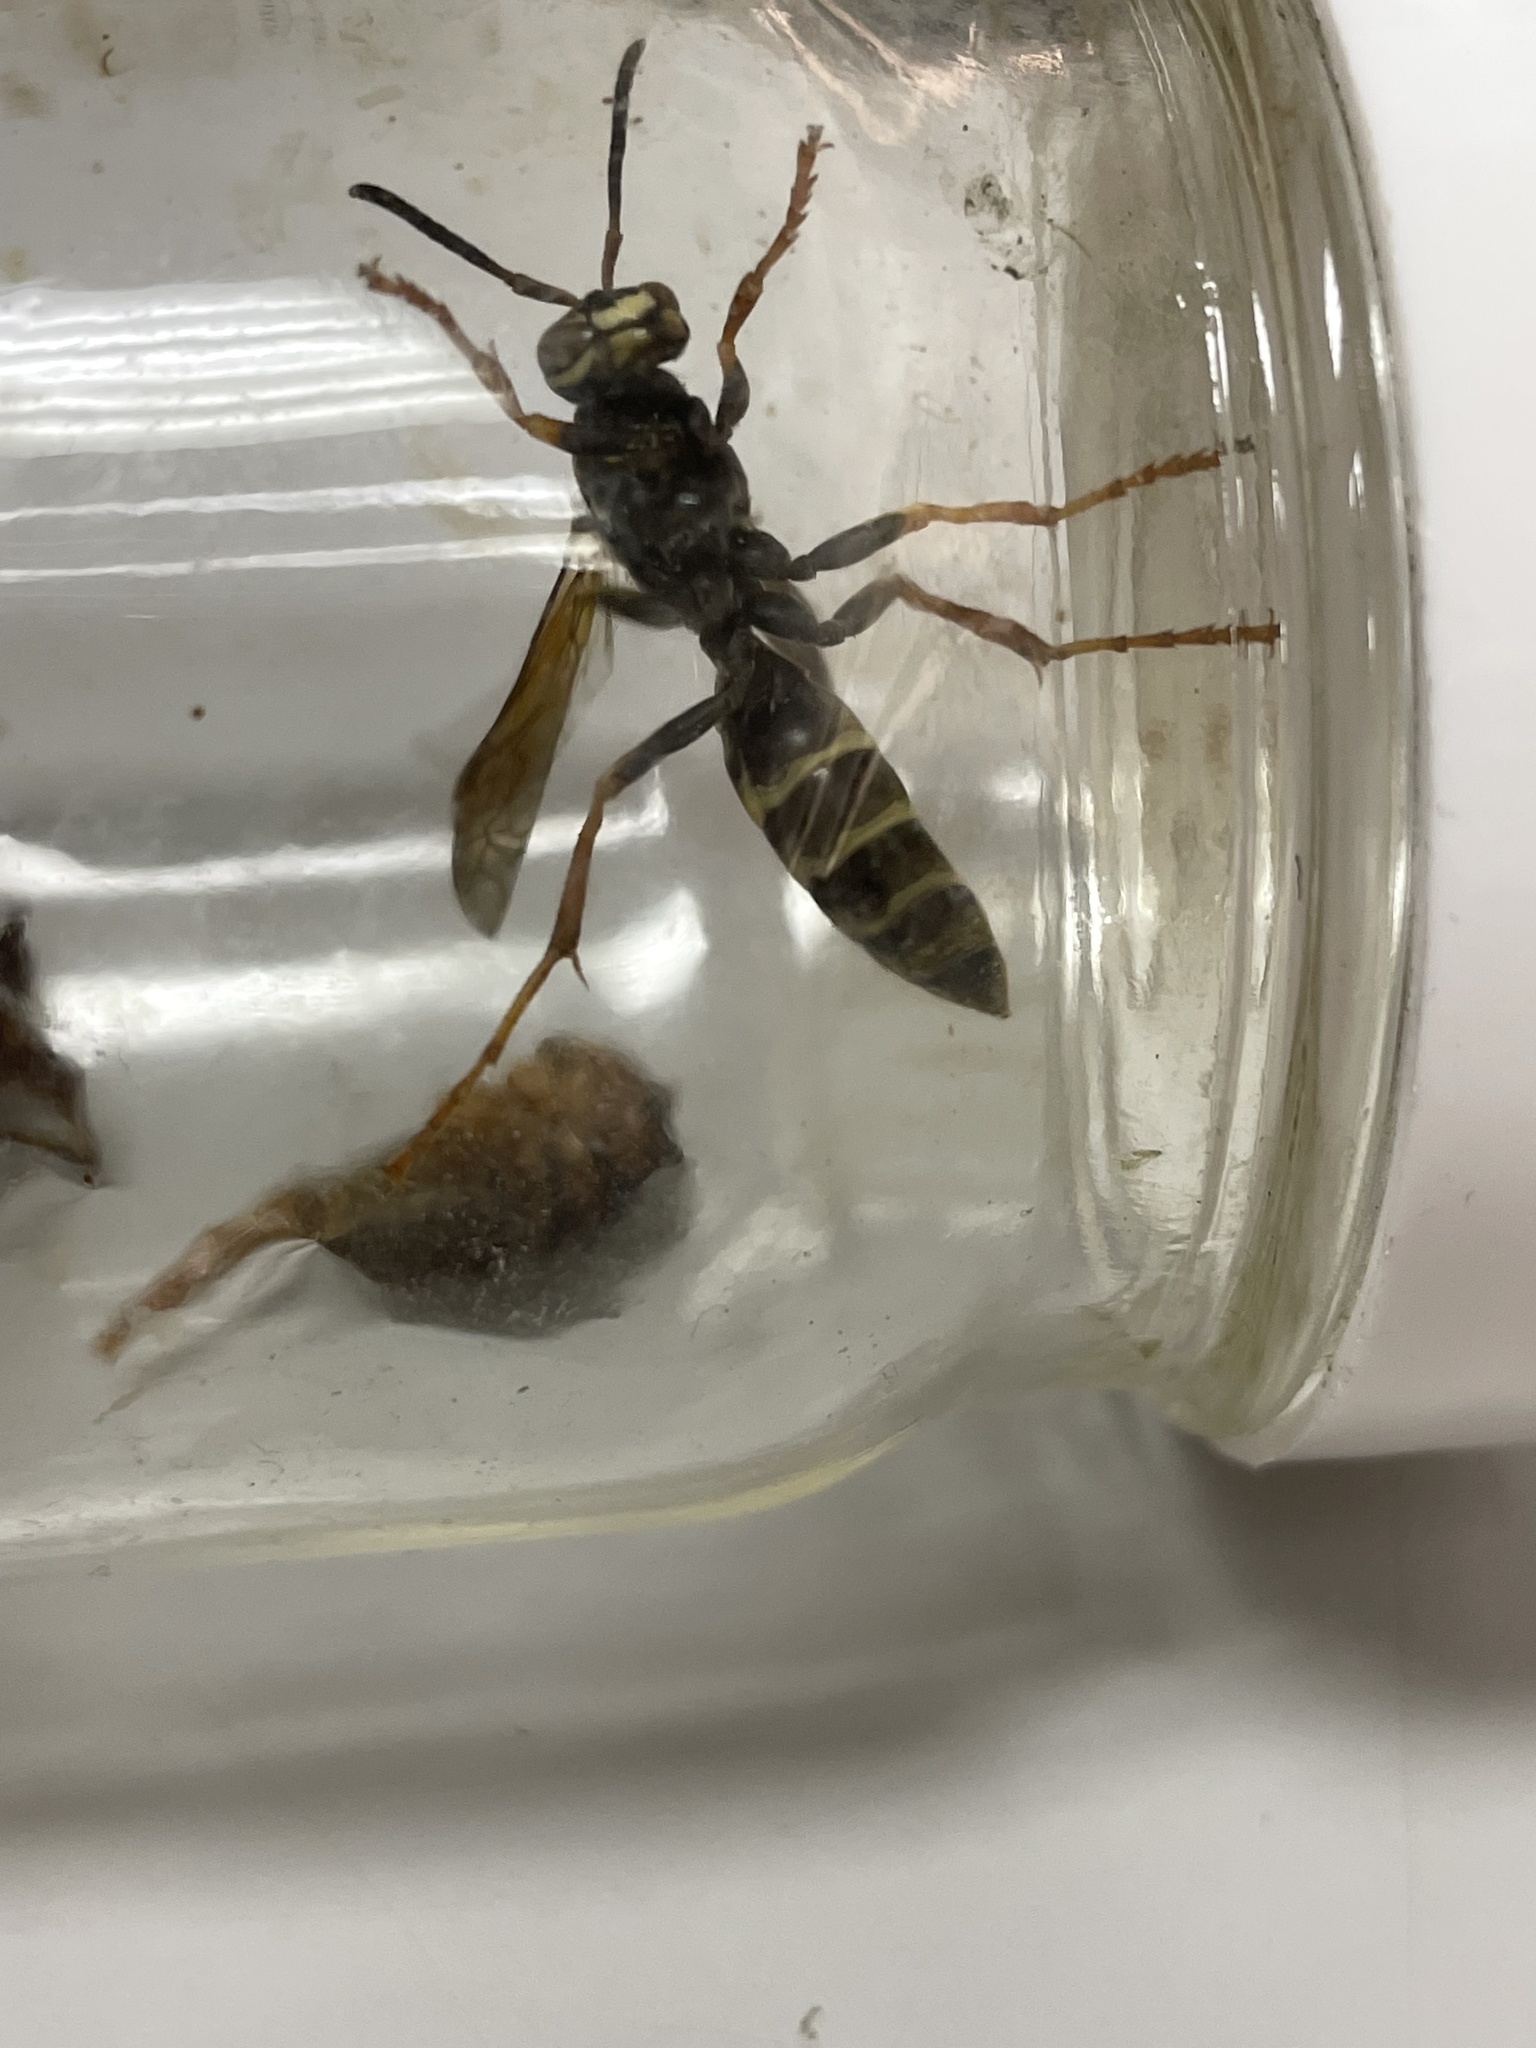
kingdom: Animalia
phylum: Arthropoda
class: Insecta
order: Hymenoptera
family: Eumenidae
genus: Polistes
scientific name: Polistes fuscatus
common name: Dark paper wasp
